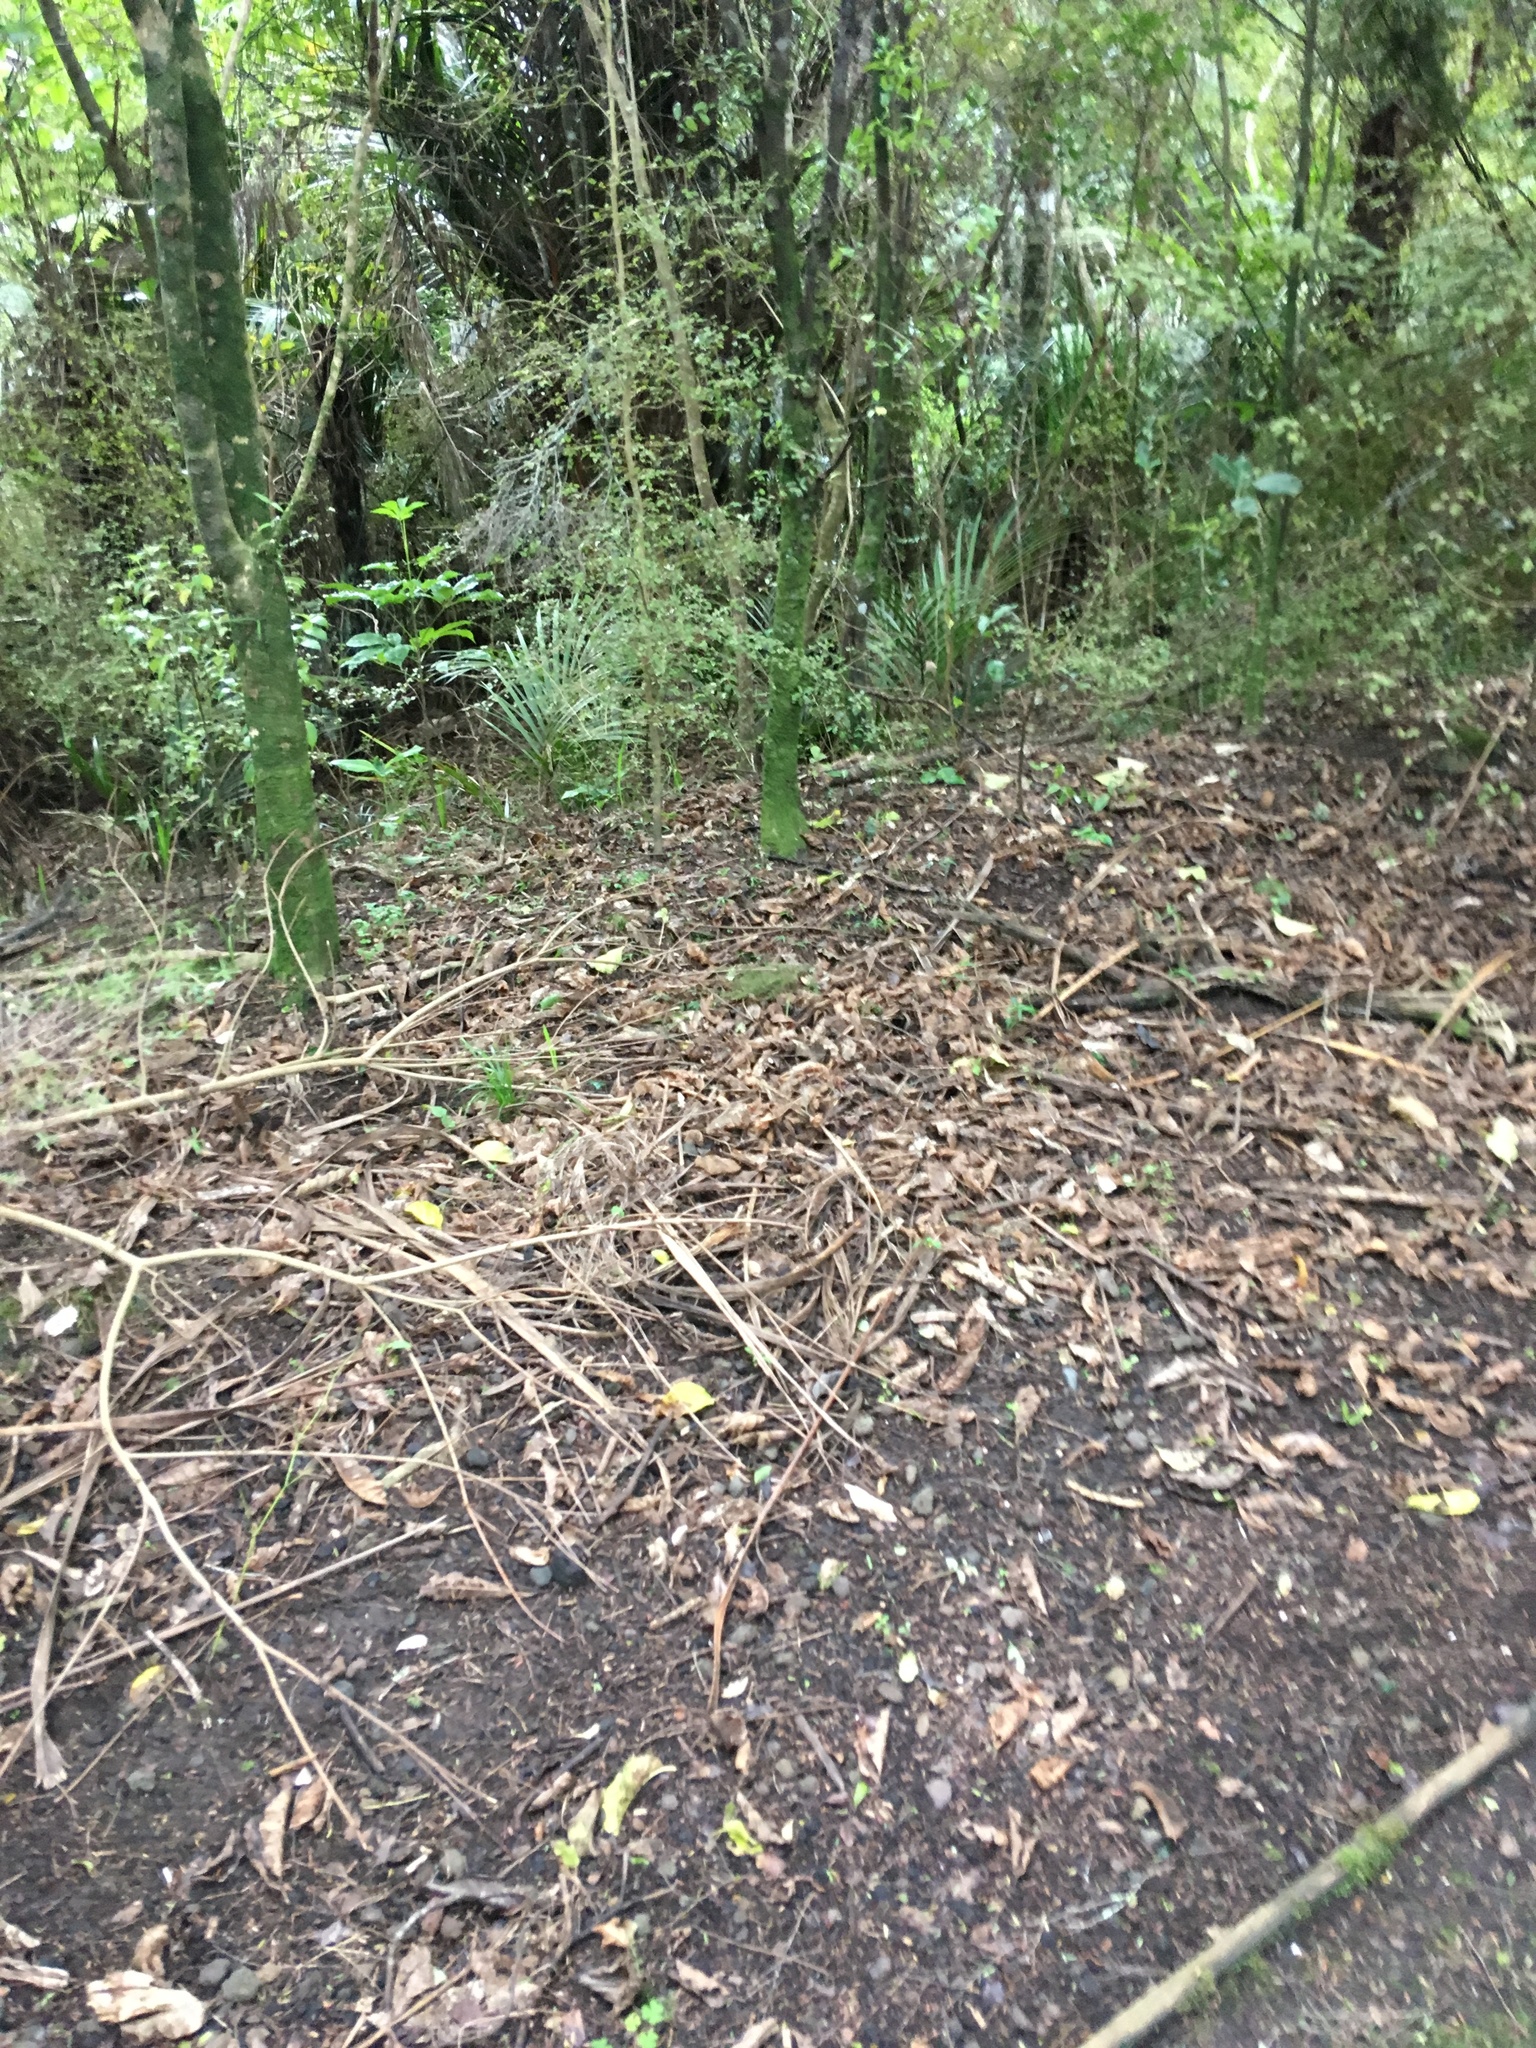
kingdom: Plantae
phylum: Tracheophyta
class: Liliopsida
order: Arecales
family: Arecaceae
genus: Rhopalostylis
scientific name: Rhopalostylis sapida
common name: Feather-duster palm
